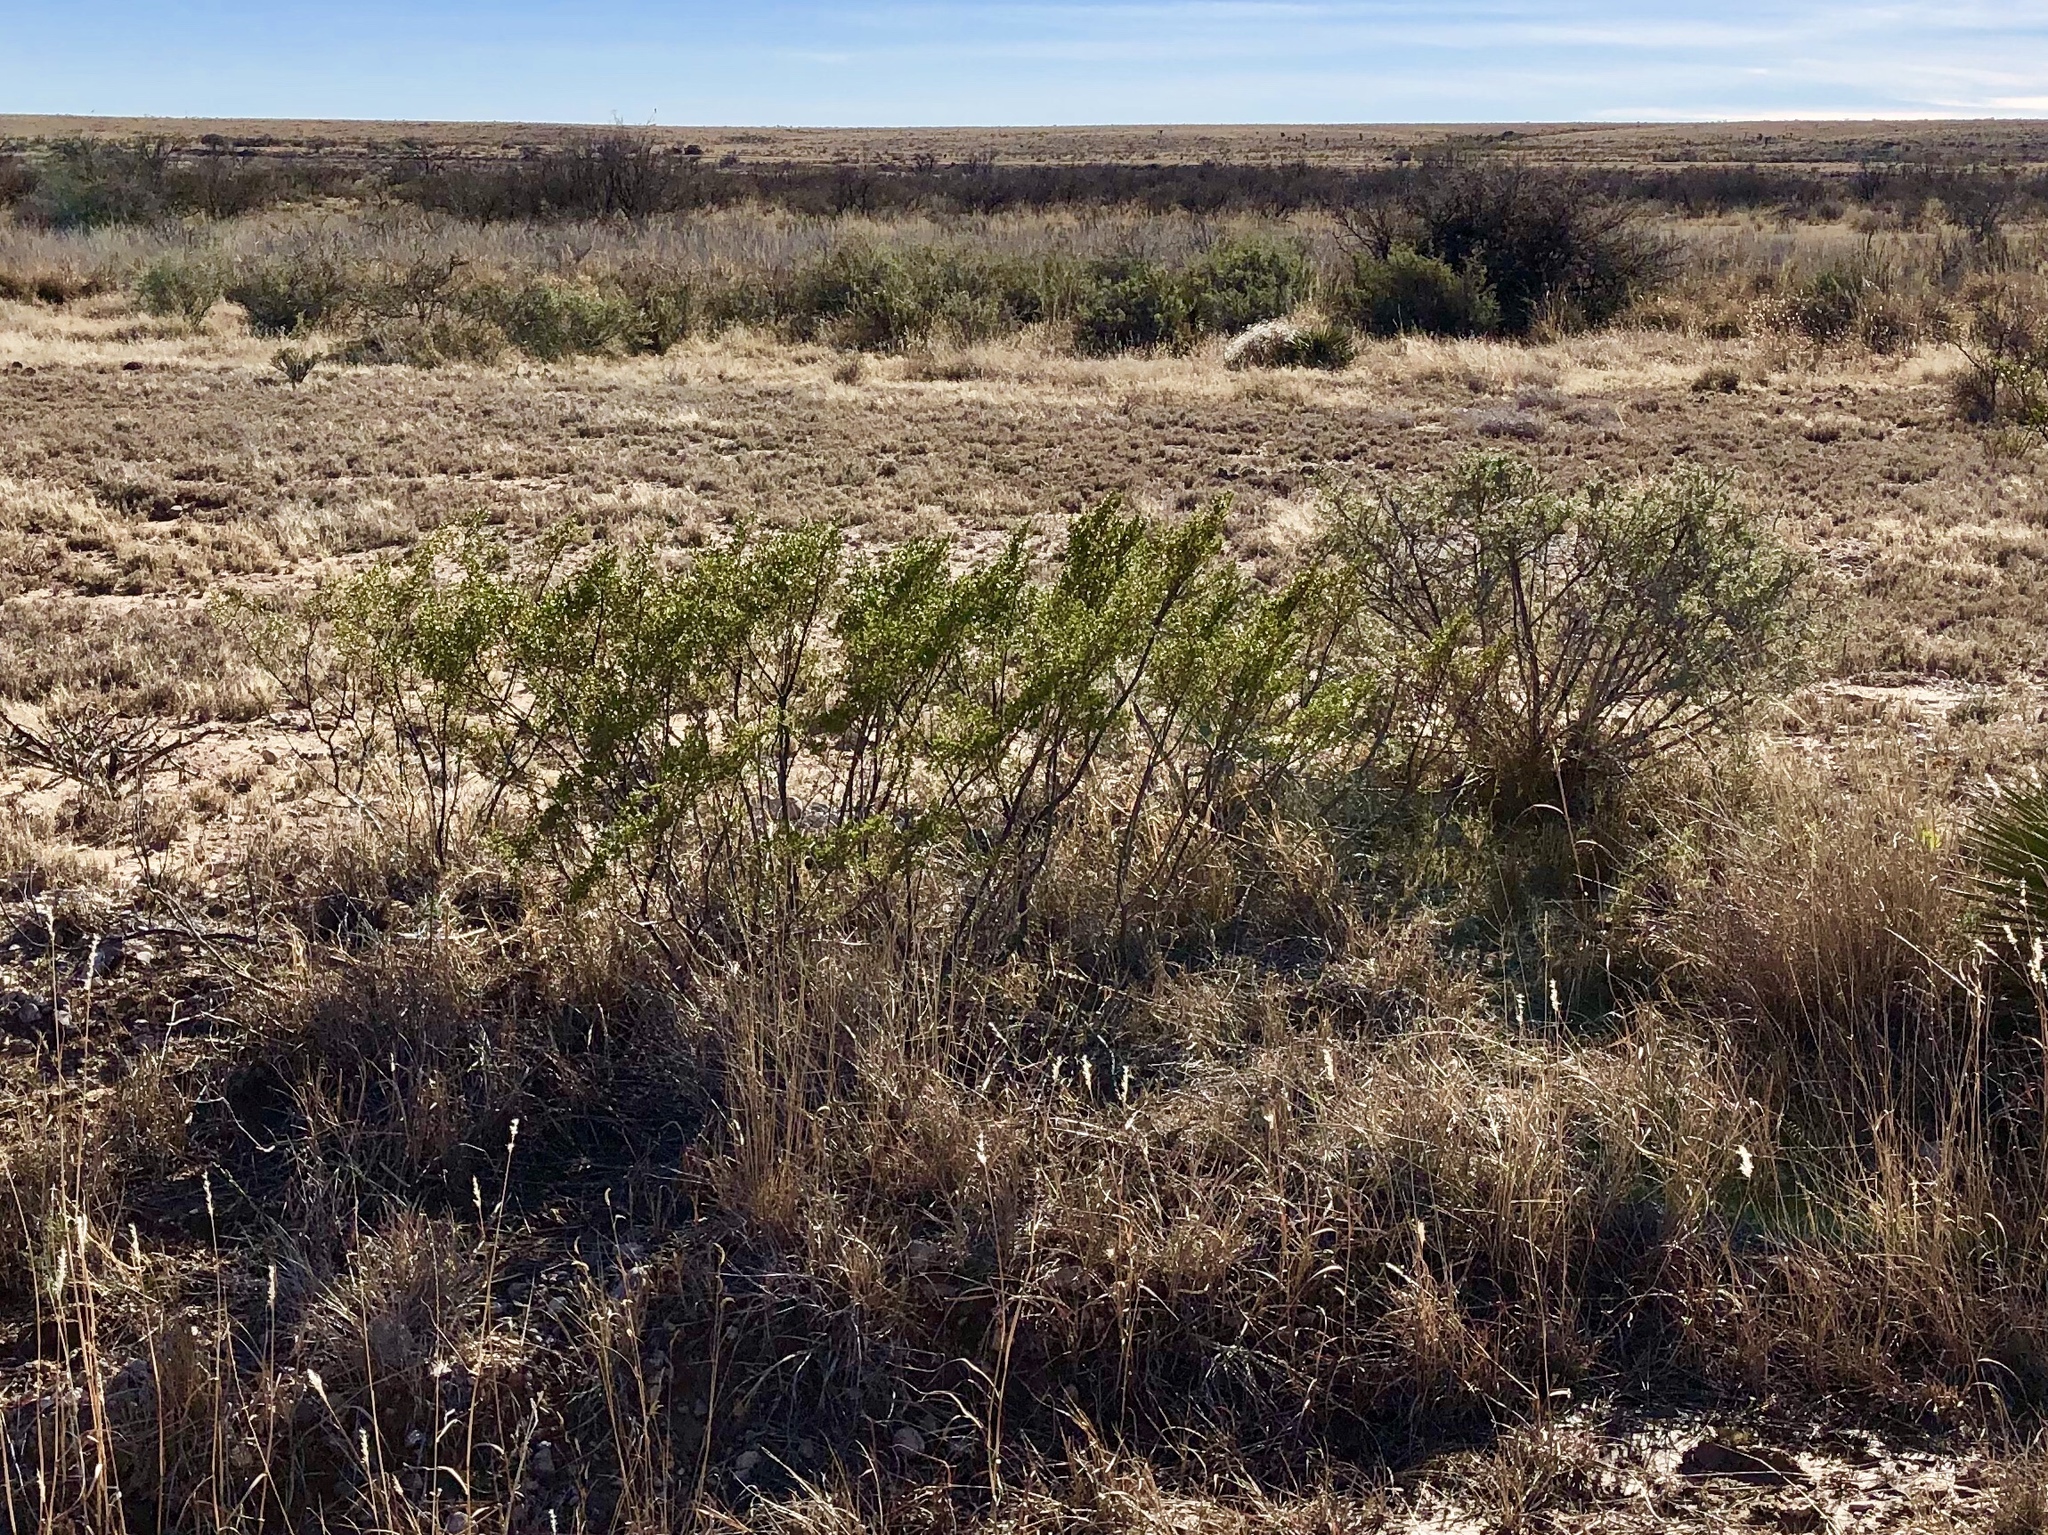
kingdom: Plantae
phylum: Tracheophyta
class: Magnoliopsida
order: Zygophyllales
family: Zygophyllaceae
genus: Larrea
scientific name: Larrea tridentata
